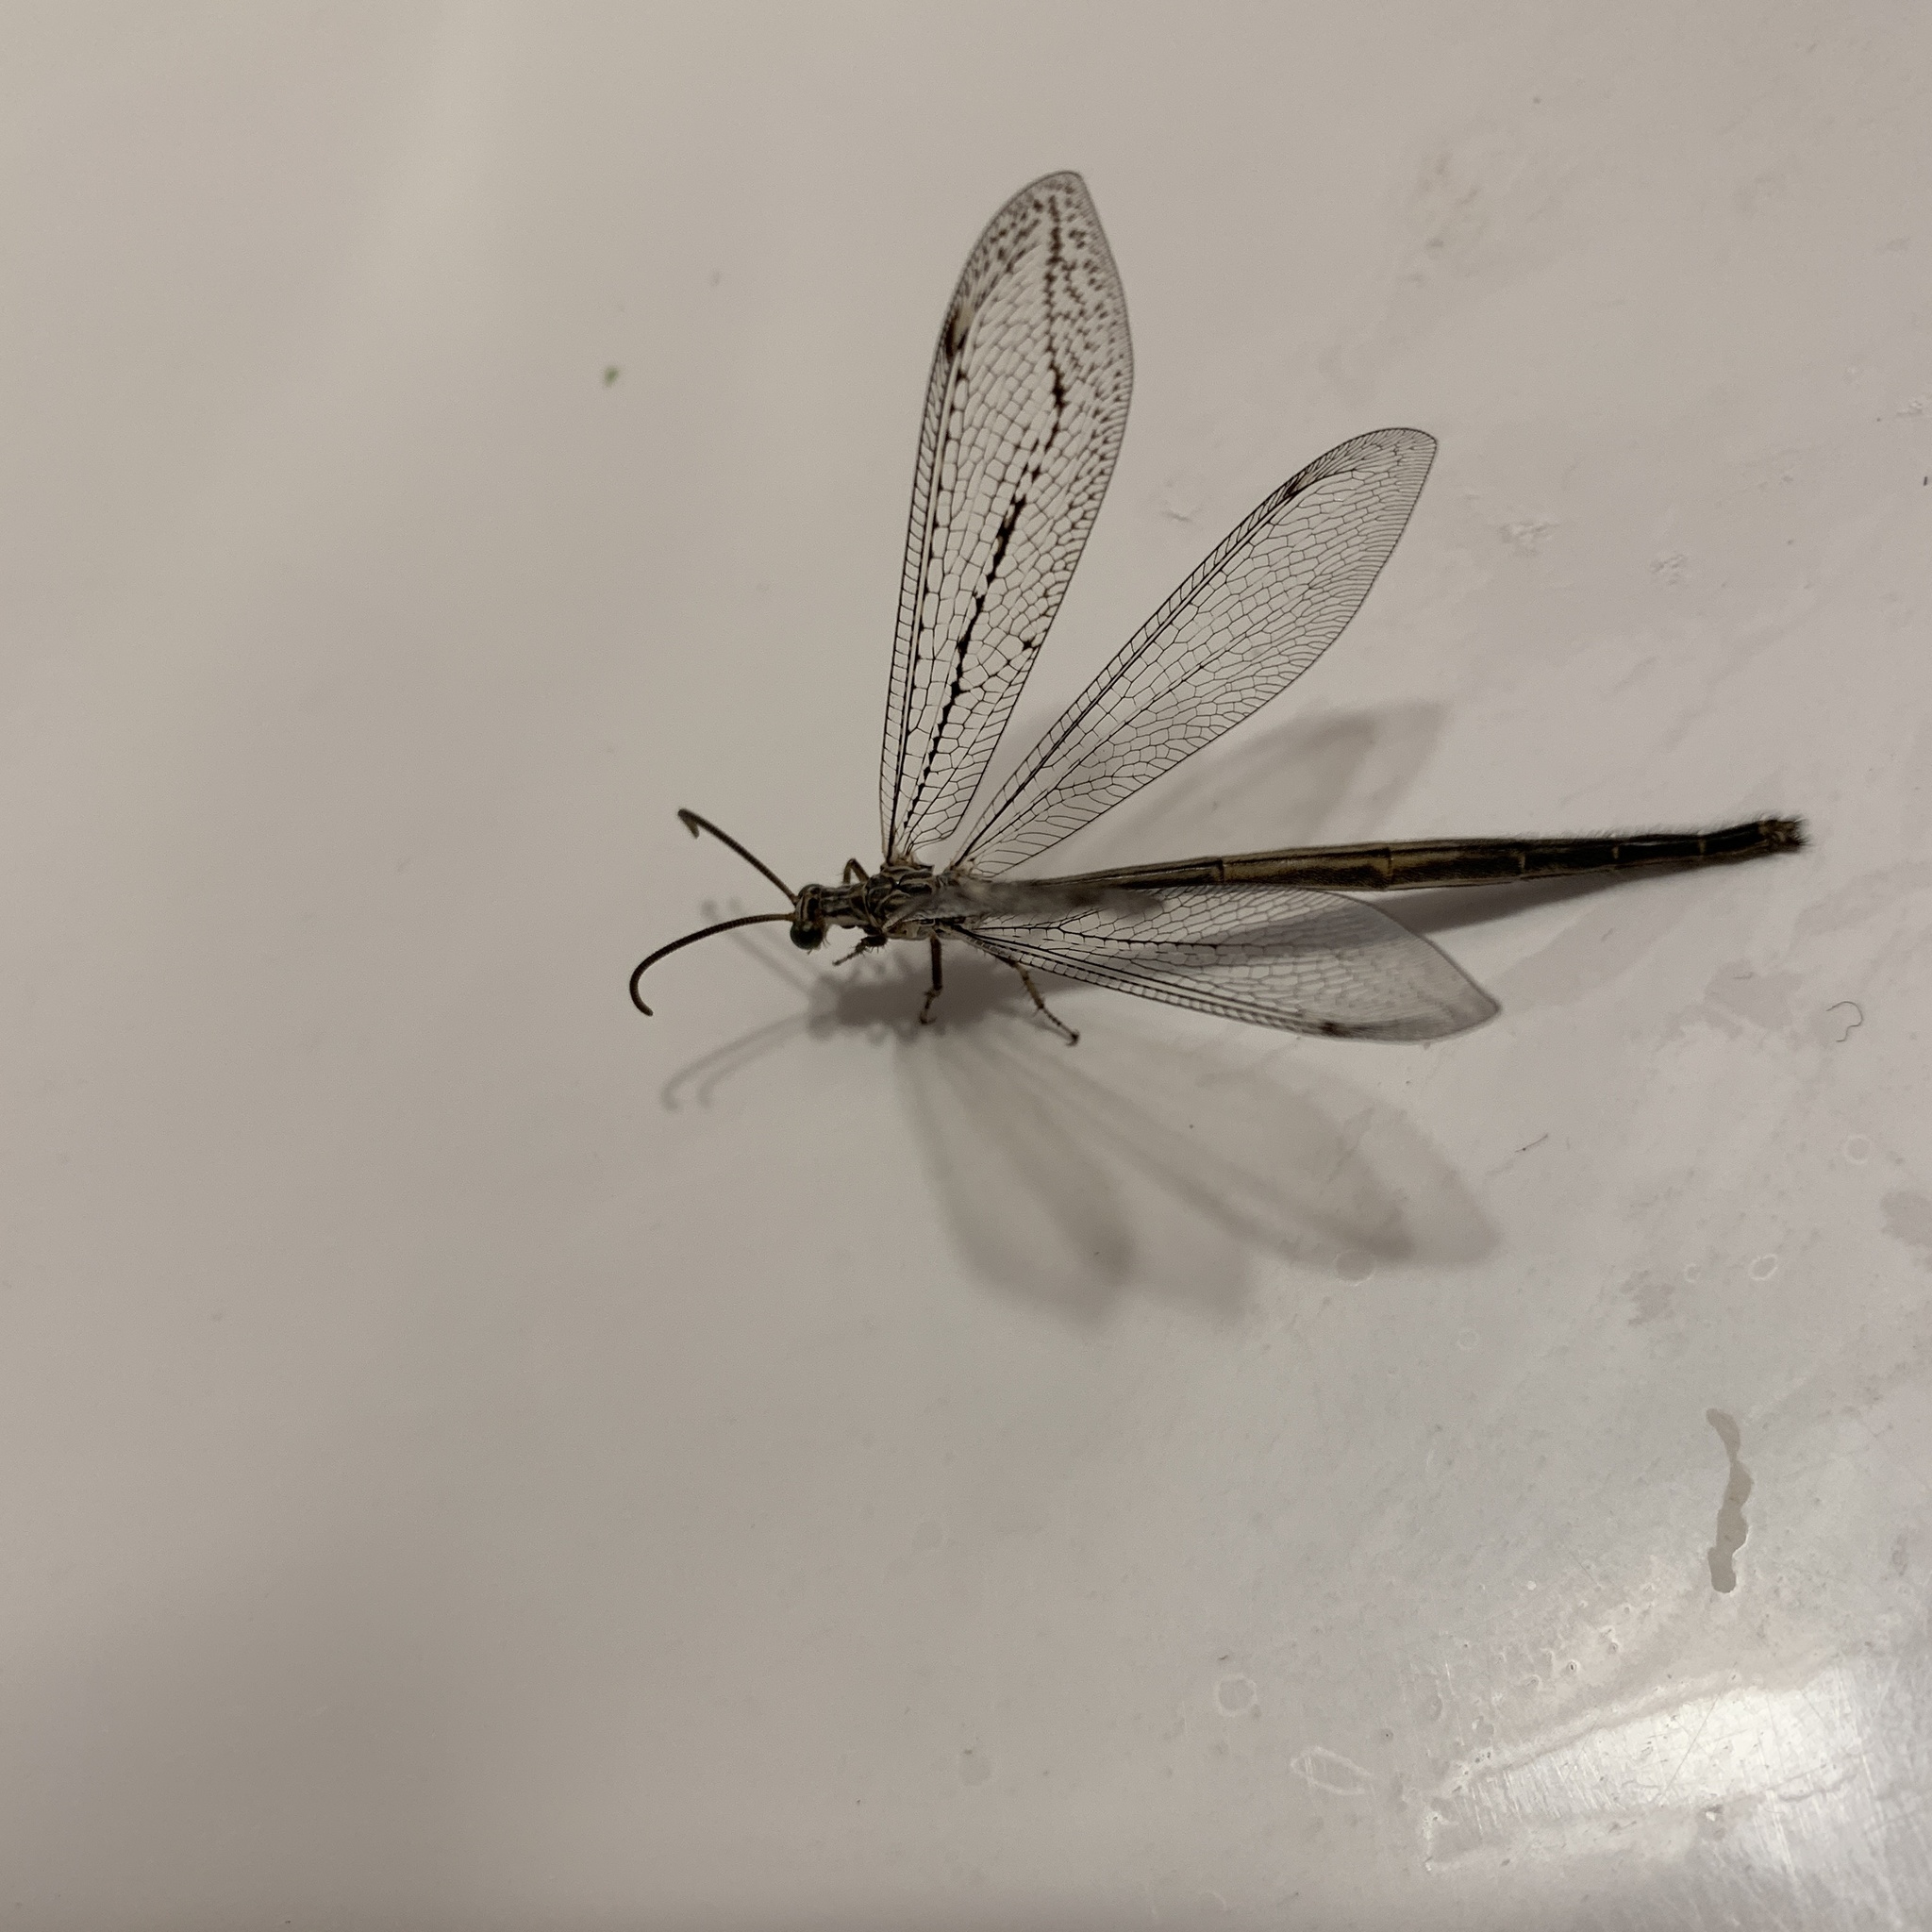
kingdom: Animalia
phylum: Arthropoda
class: Insecta
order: Neuroptera
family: Myrmeleontidae
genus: Scotoleon
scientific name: Scotoleon
